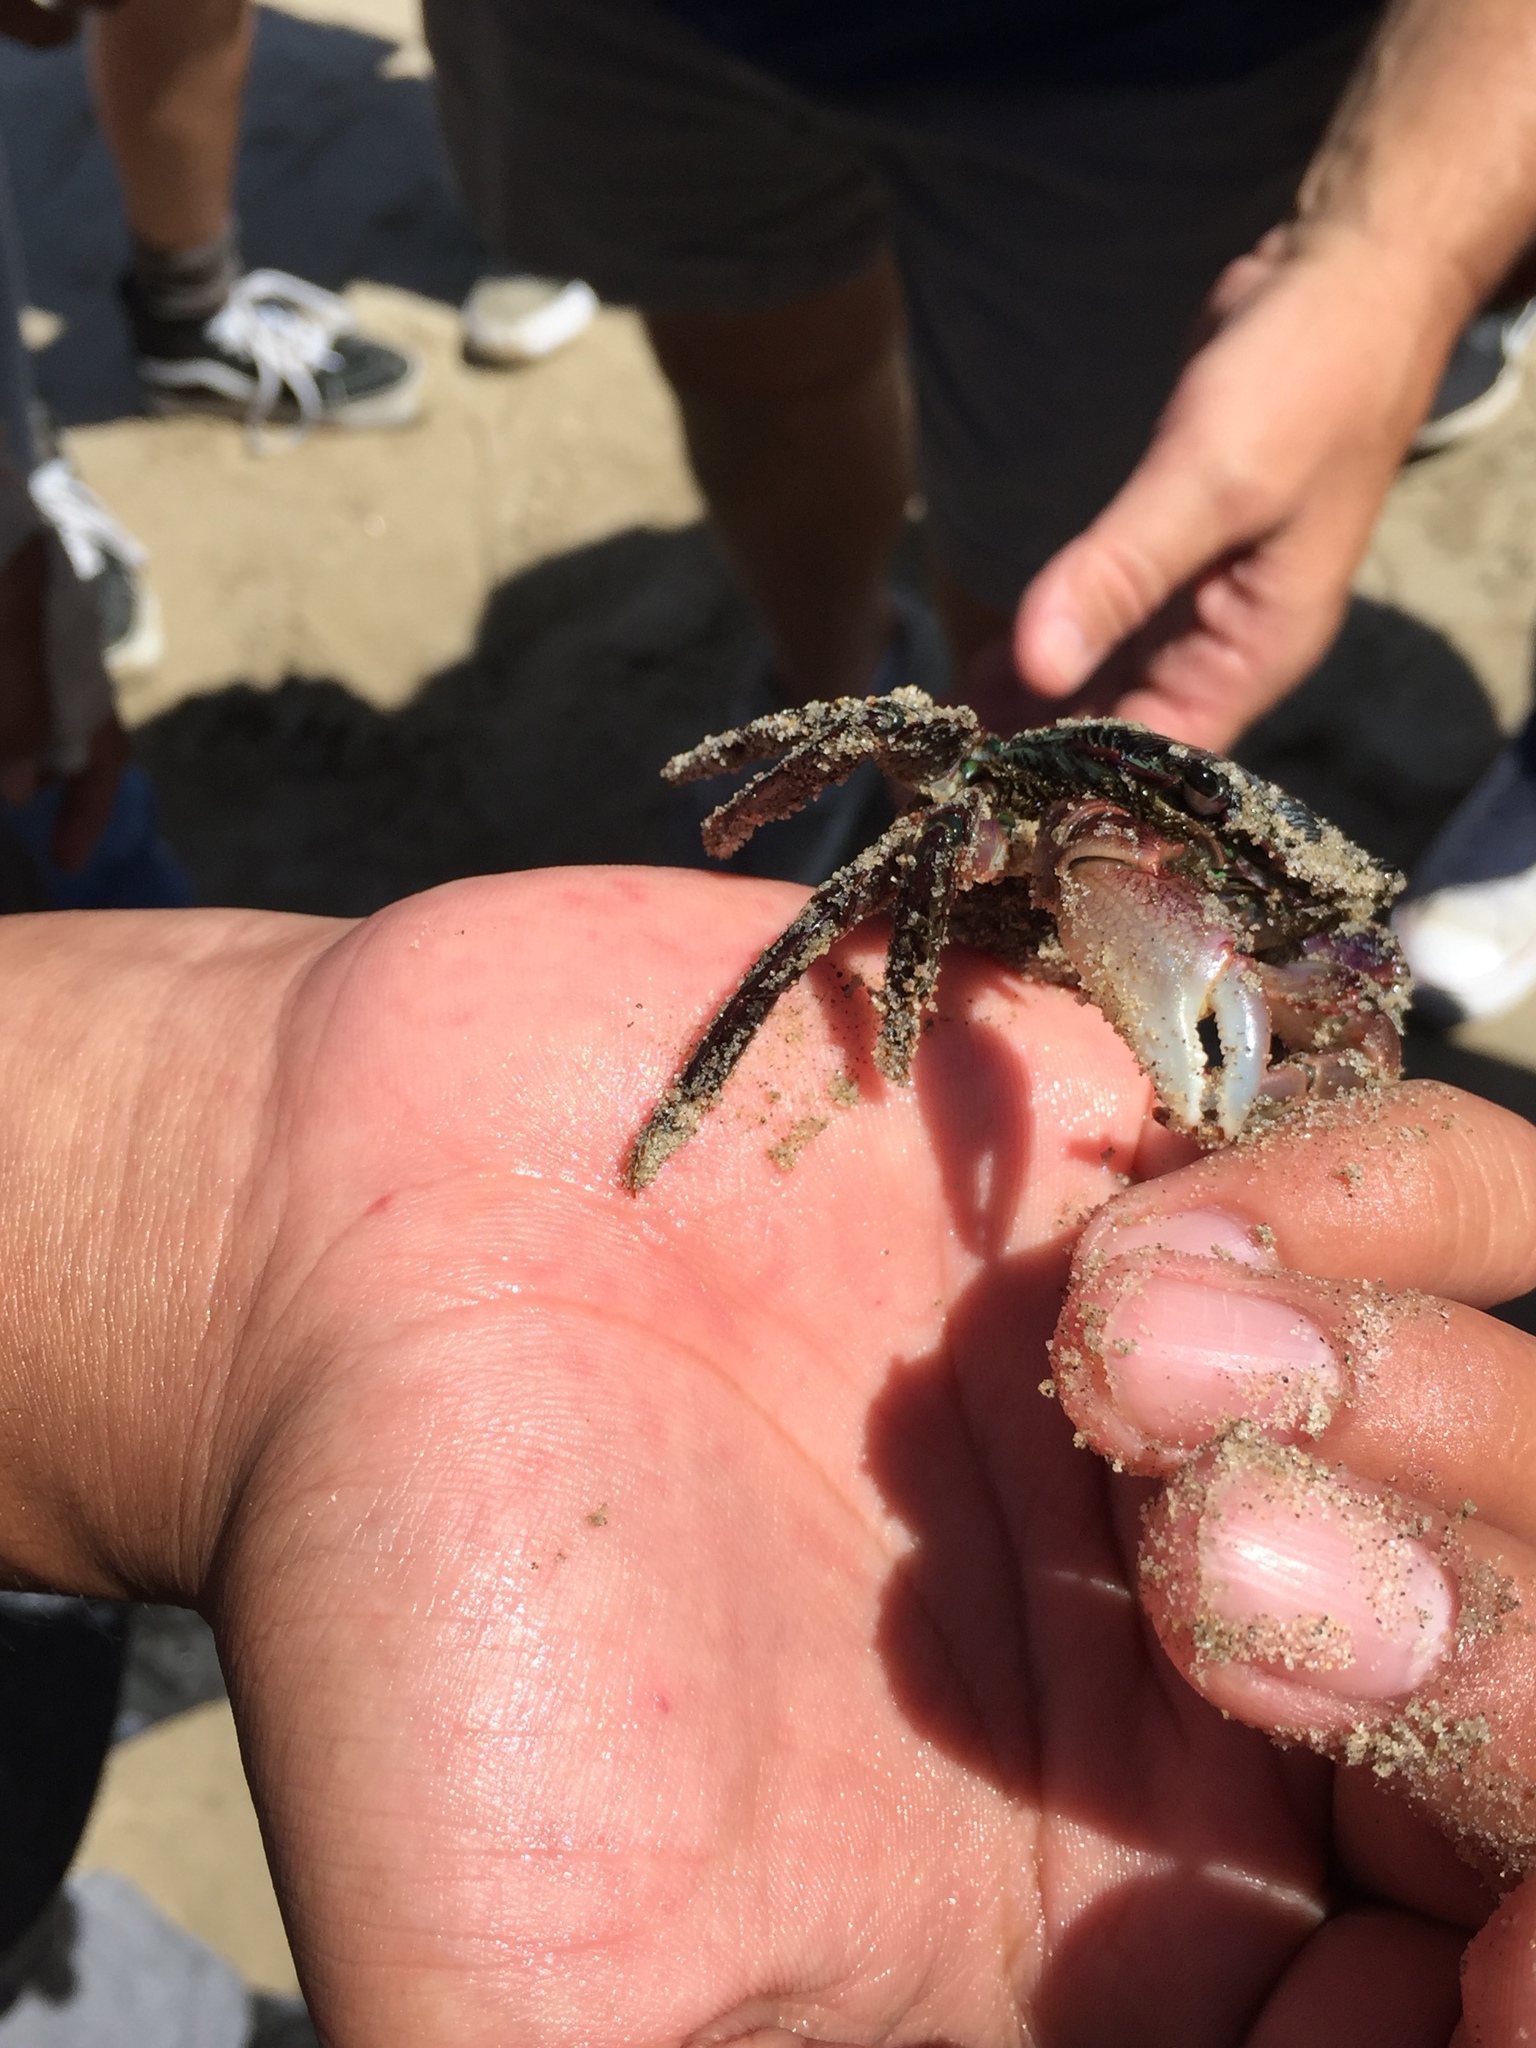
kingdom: Animalia
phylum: Arthropoda
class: Malacostraca
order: Decapoda
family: Grapsidae
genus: Pachygrapsus
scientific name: Pachygrapsus crassipes
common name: Striped shore crab
